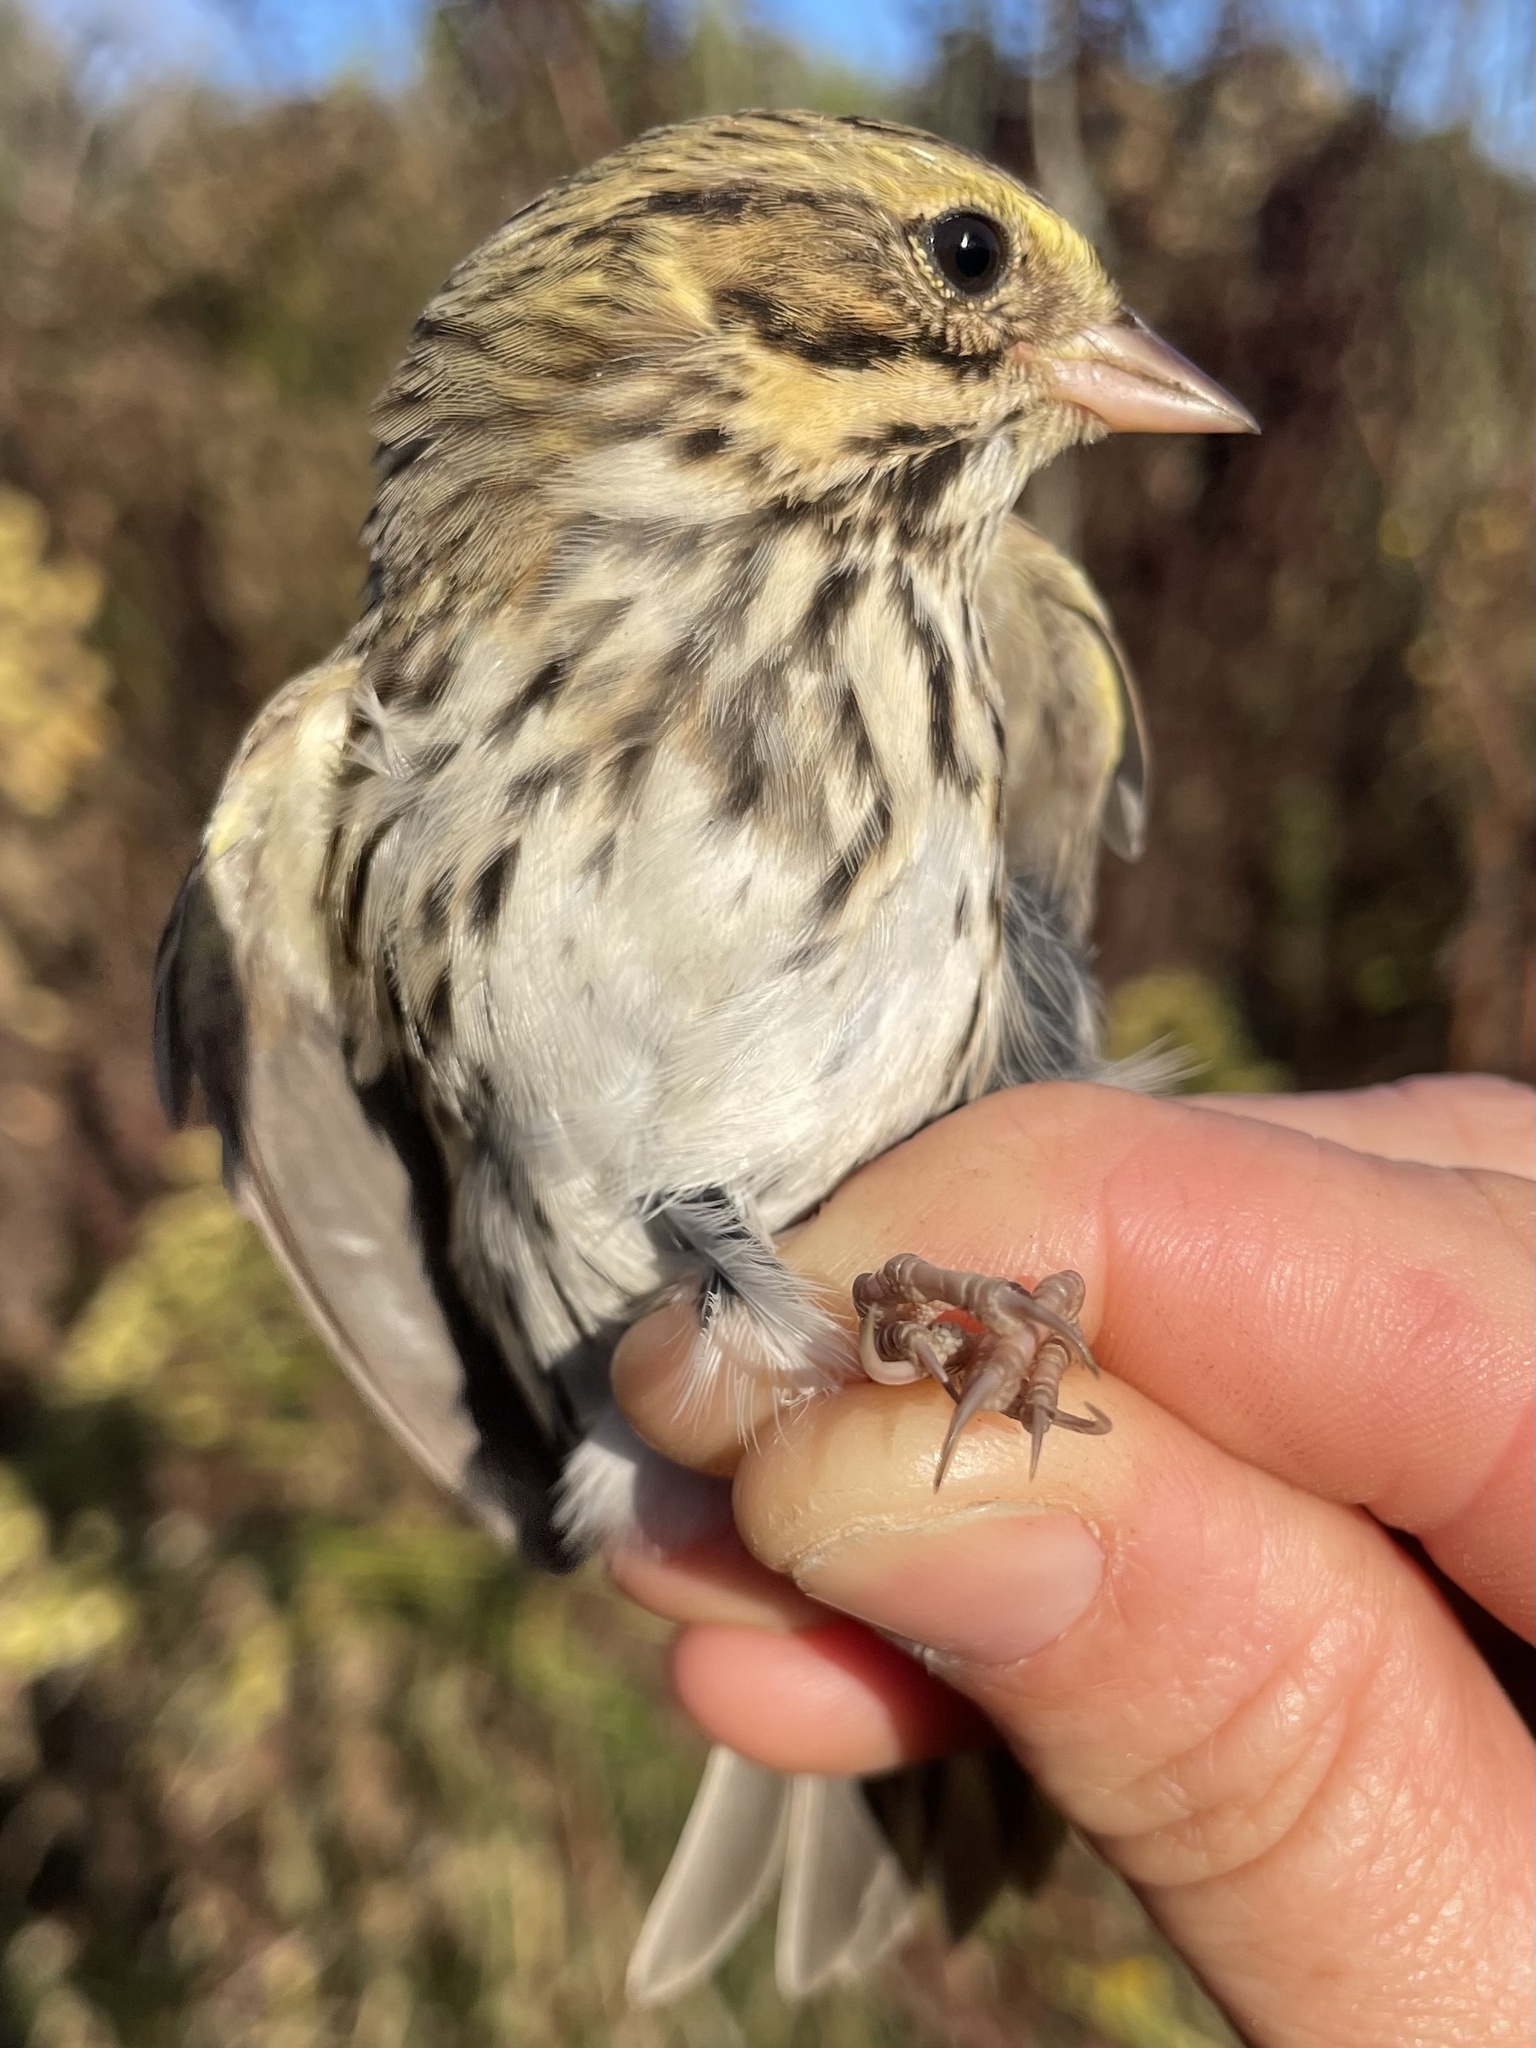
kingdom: Animalia
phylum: Chordata
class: Aves
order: Passeriformes
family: Passerellidae
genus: Passerculus
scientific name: Passerculus sandwichensis
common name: Savannah sparrow
